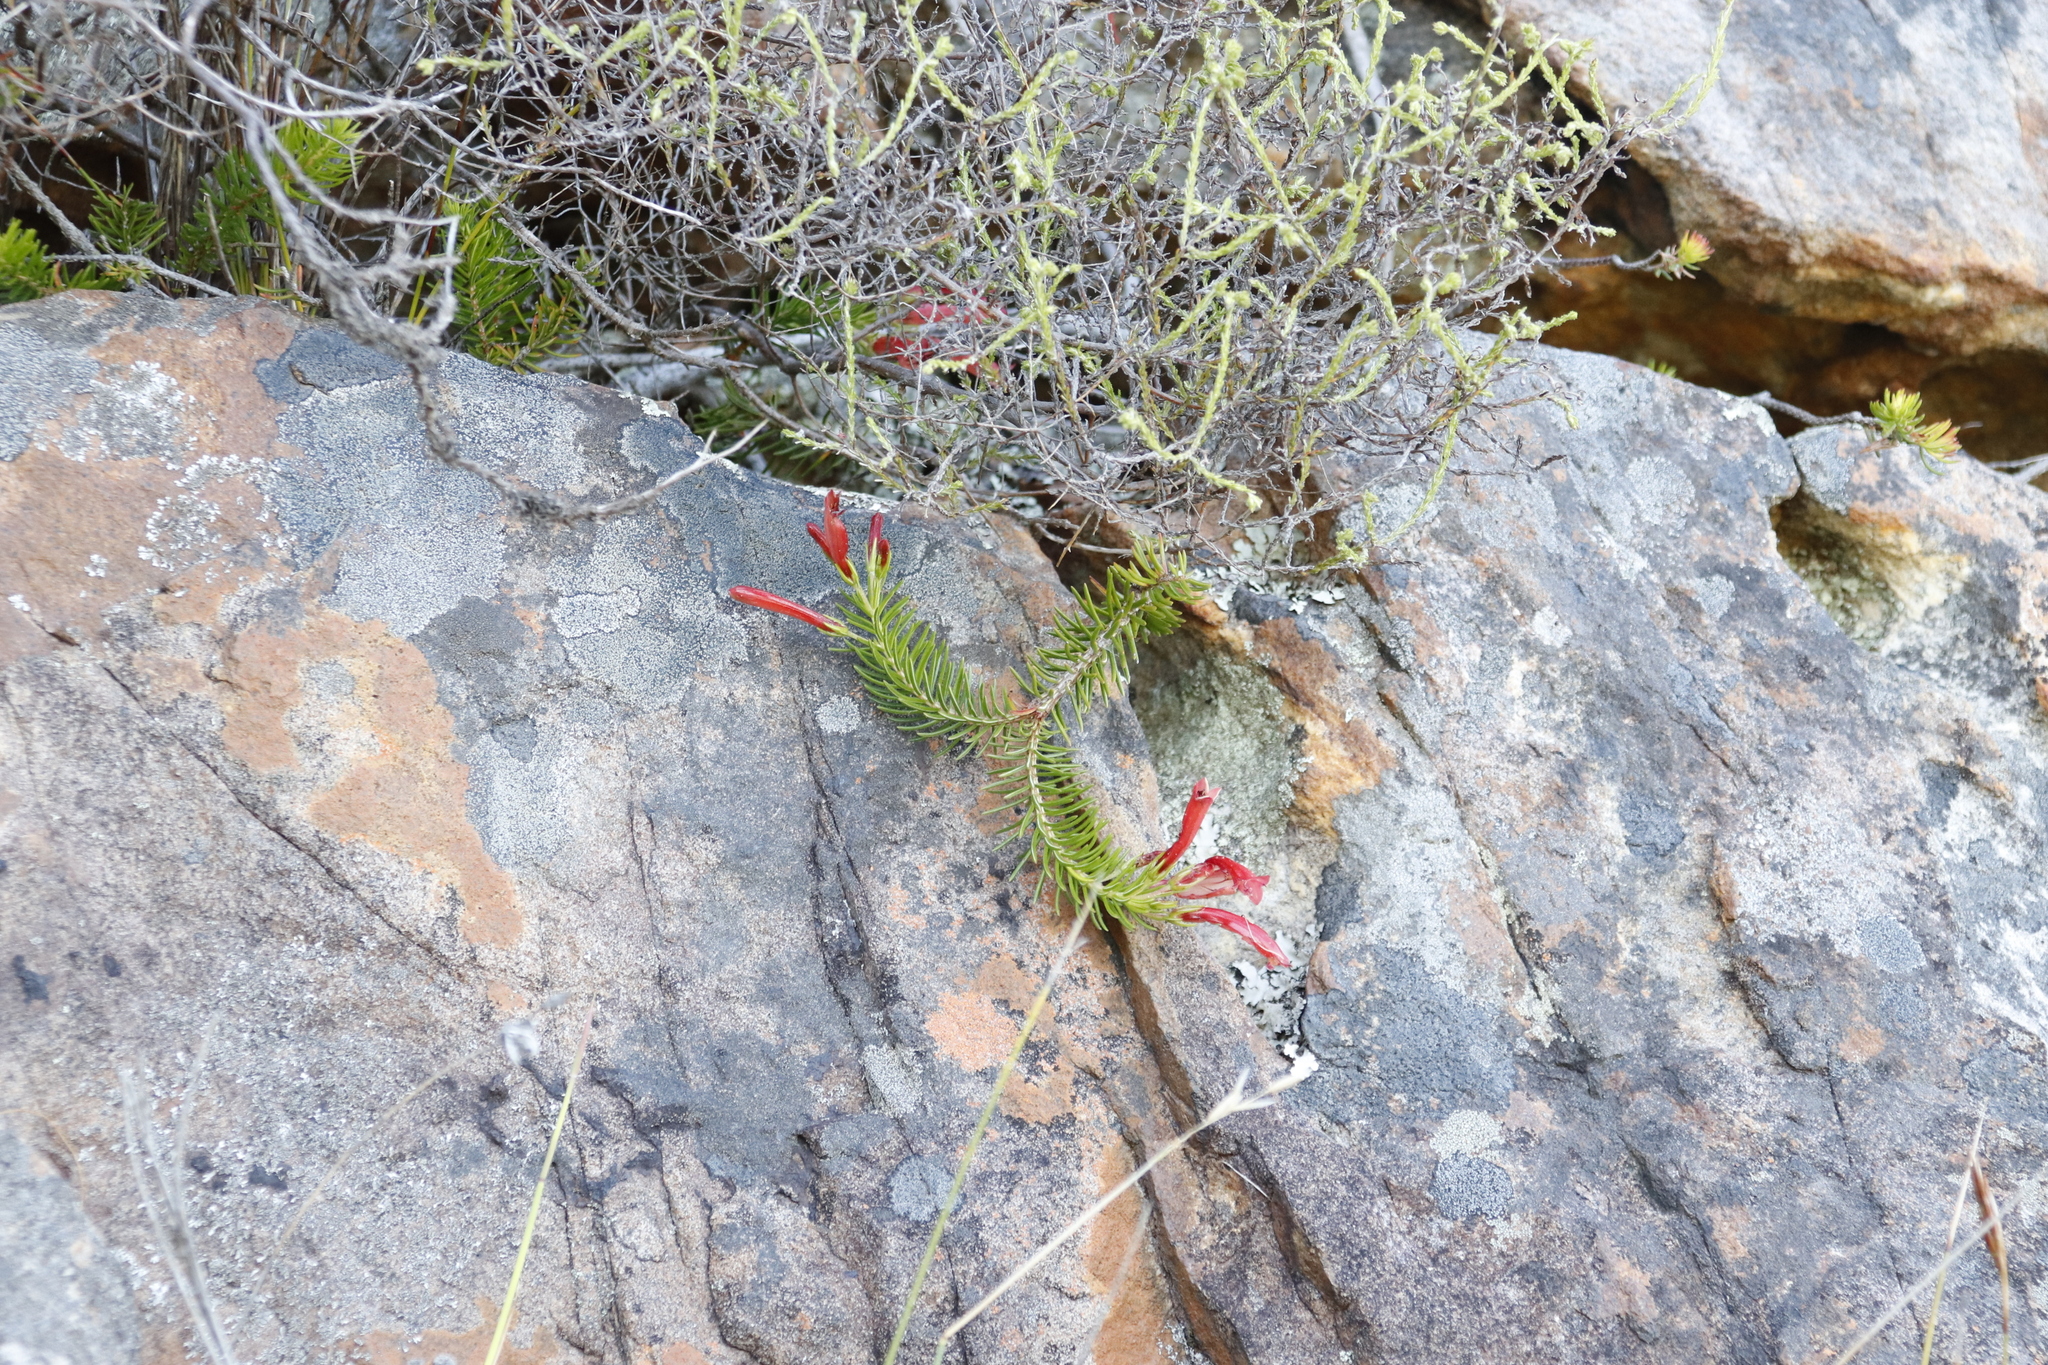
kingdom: Plantae
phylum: Tracheophyta
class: Magnoliopsida
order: Ericales
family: Ericaceae
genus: Erica
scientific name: Erica nevillei
